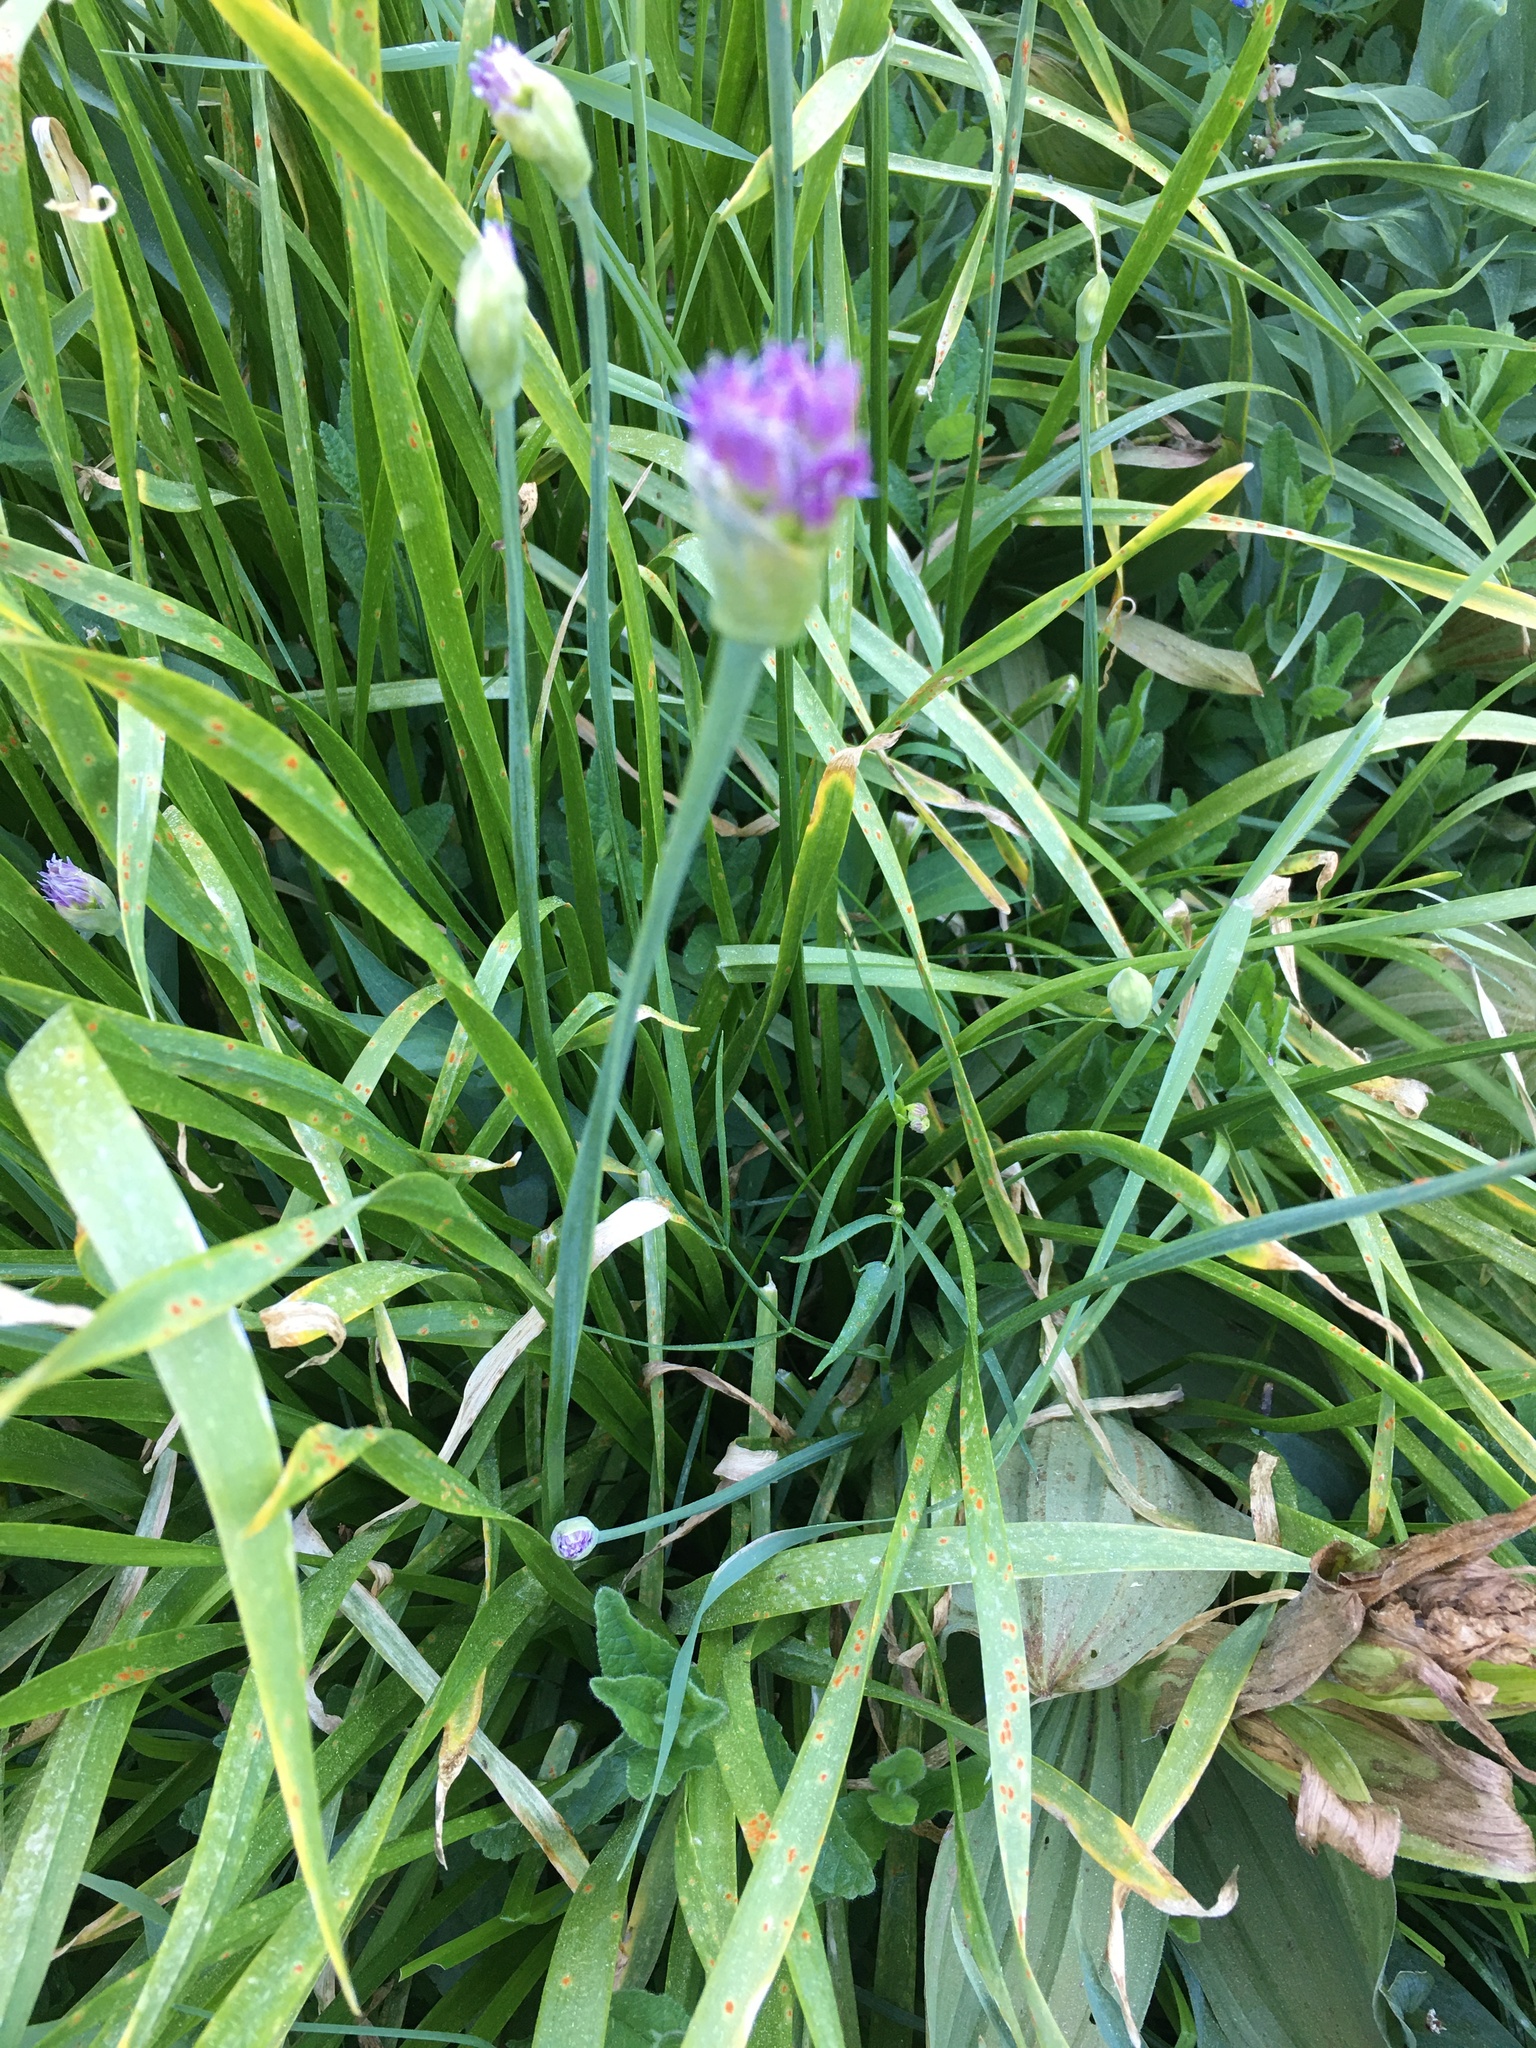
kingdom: Plantae
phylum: Tracheophyta
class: Liliopsida
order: Asparagales
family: Amaryllidaceae
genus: Allium
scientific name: Allium validum
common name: Pacific mountain onion
